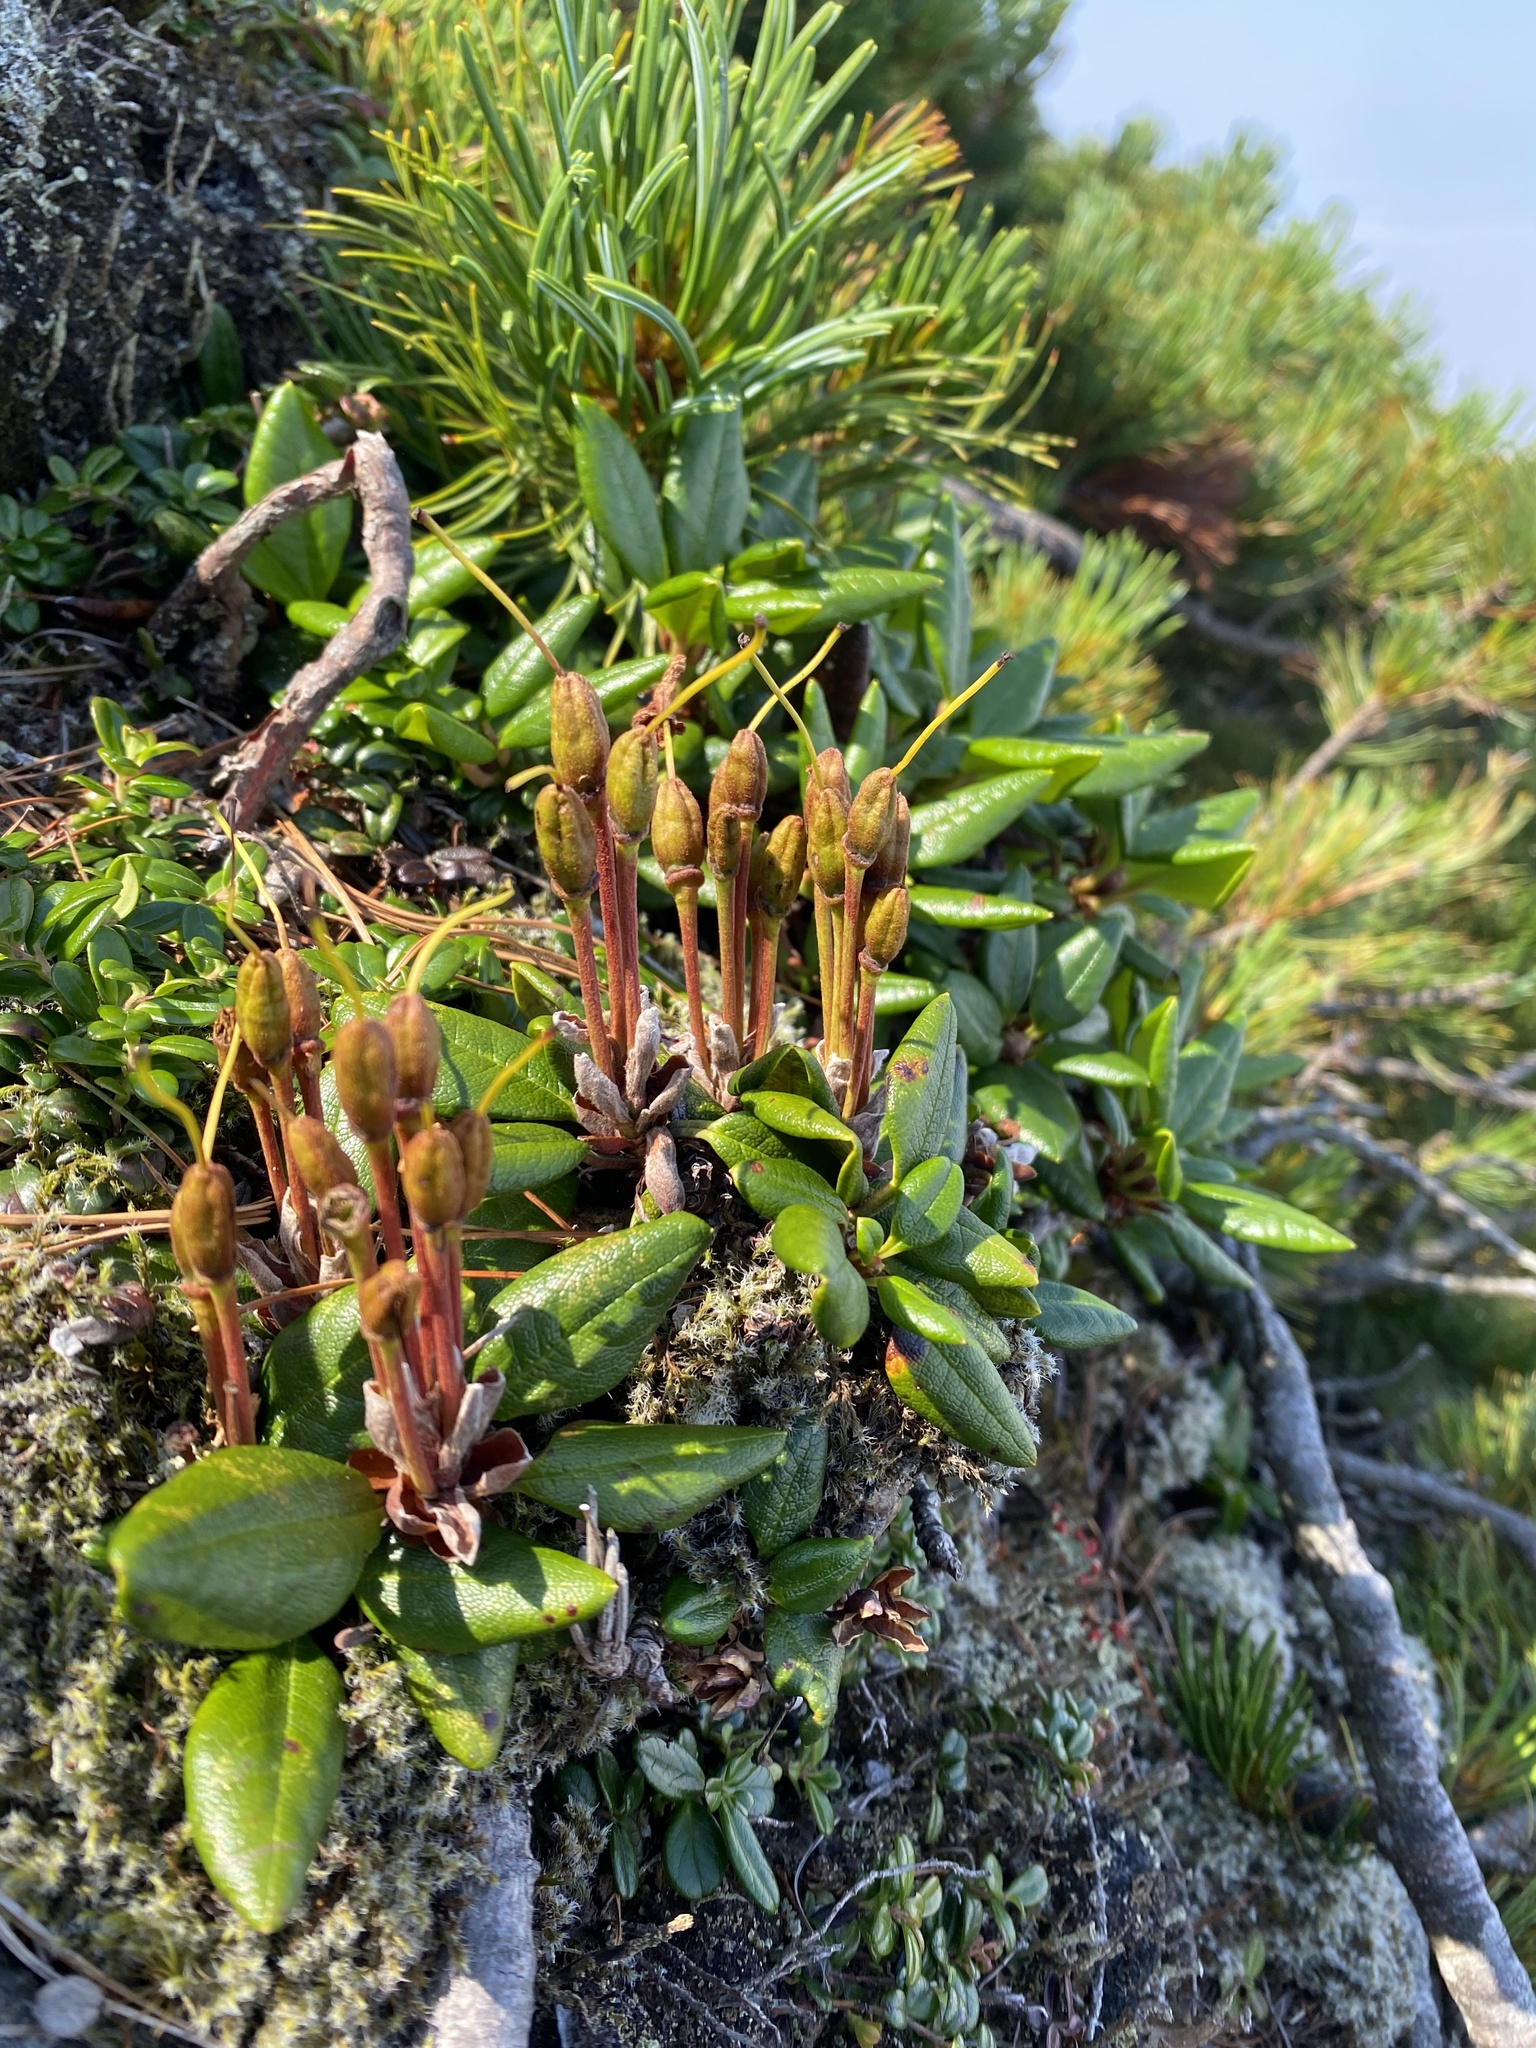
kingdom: Plantae
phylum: Tracheophyta
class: Magnoliopsida
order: Ericales
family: Ericaceae
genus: Rhododendron
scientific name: Rhododendron aureum
